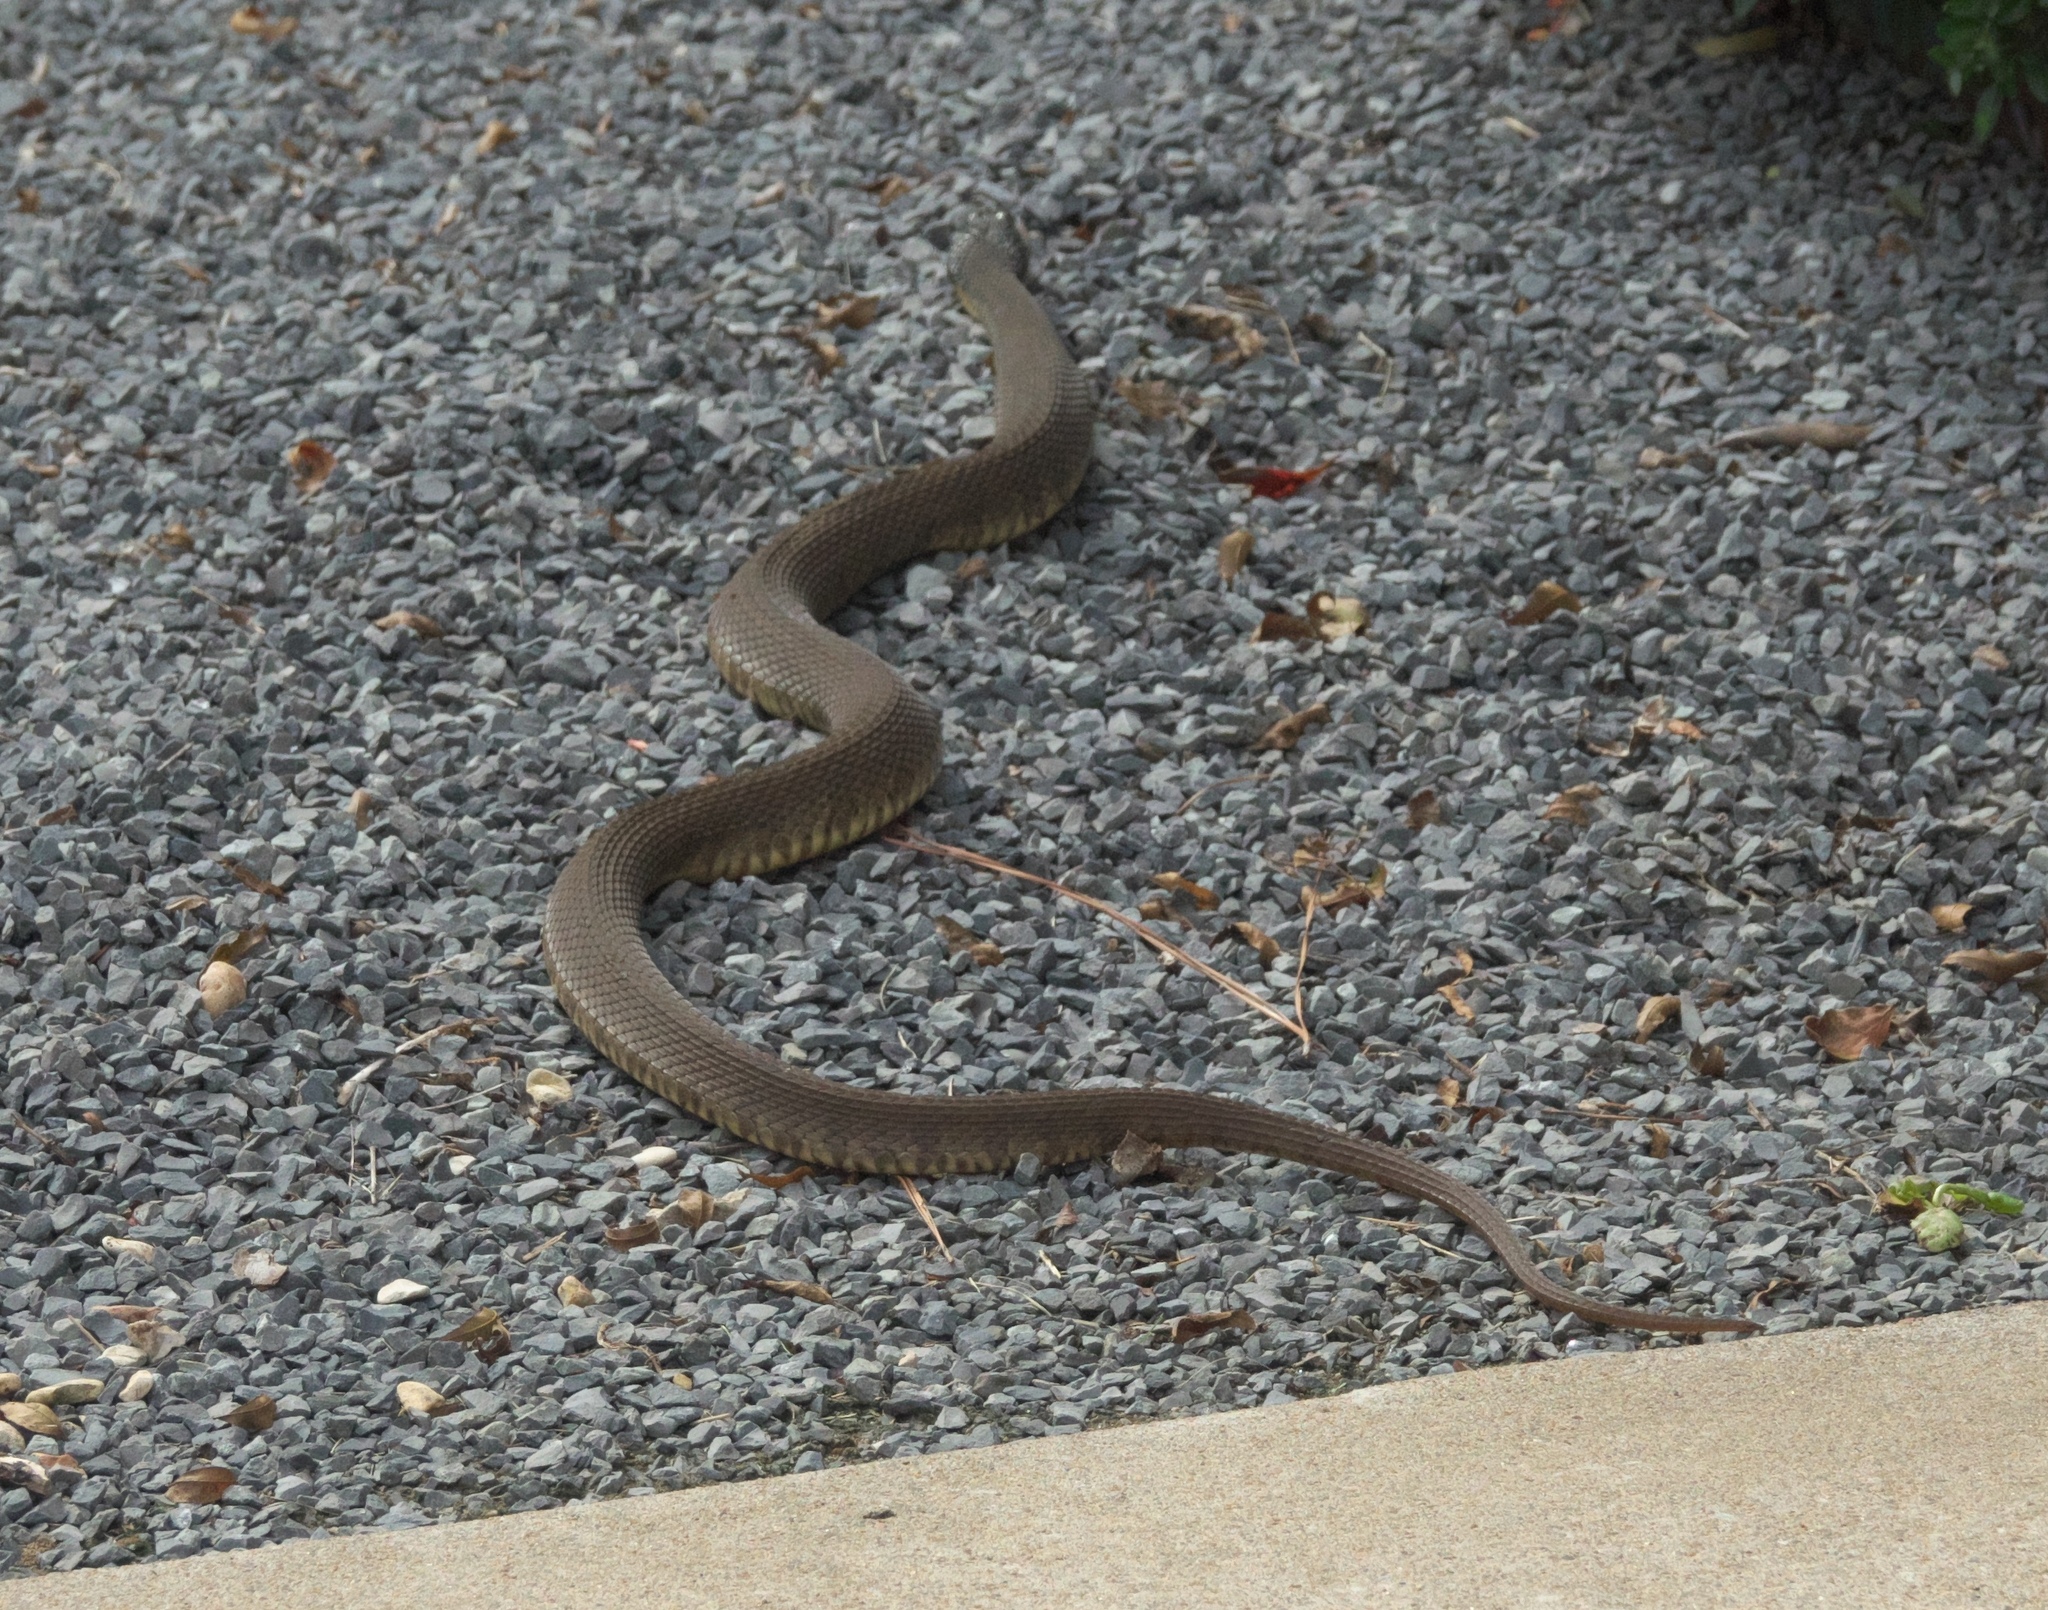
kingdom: Animalia
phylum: Chordata
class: Squamata
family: Colubridae
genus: Nerodia
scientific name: Nerodia erythrogaster
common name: Plainbelly water snake
